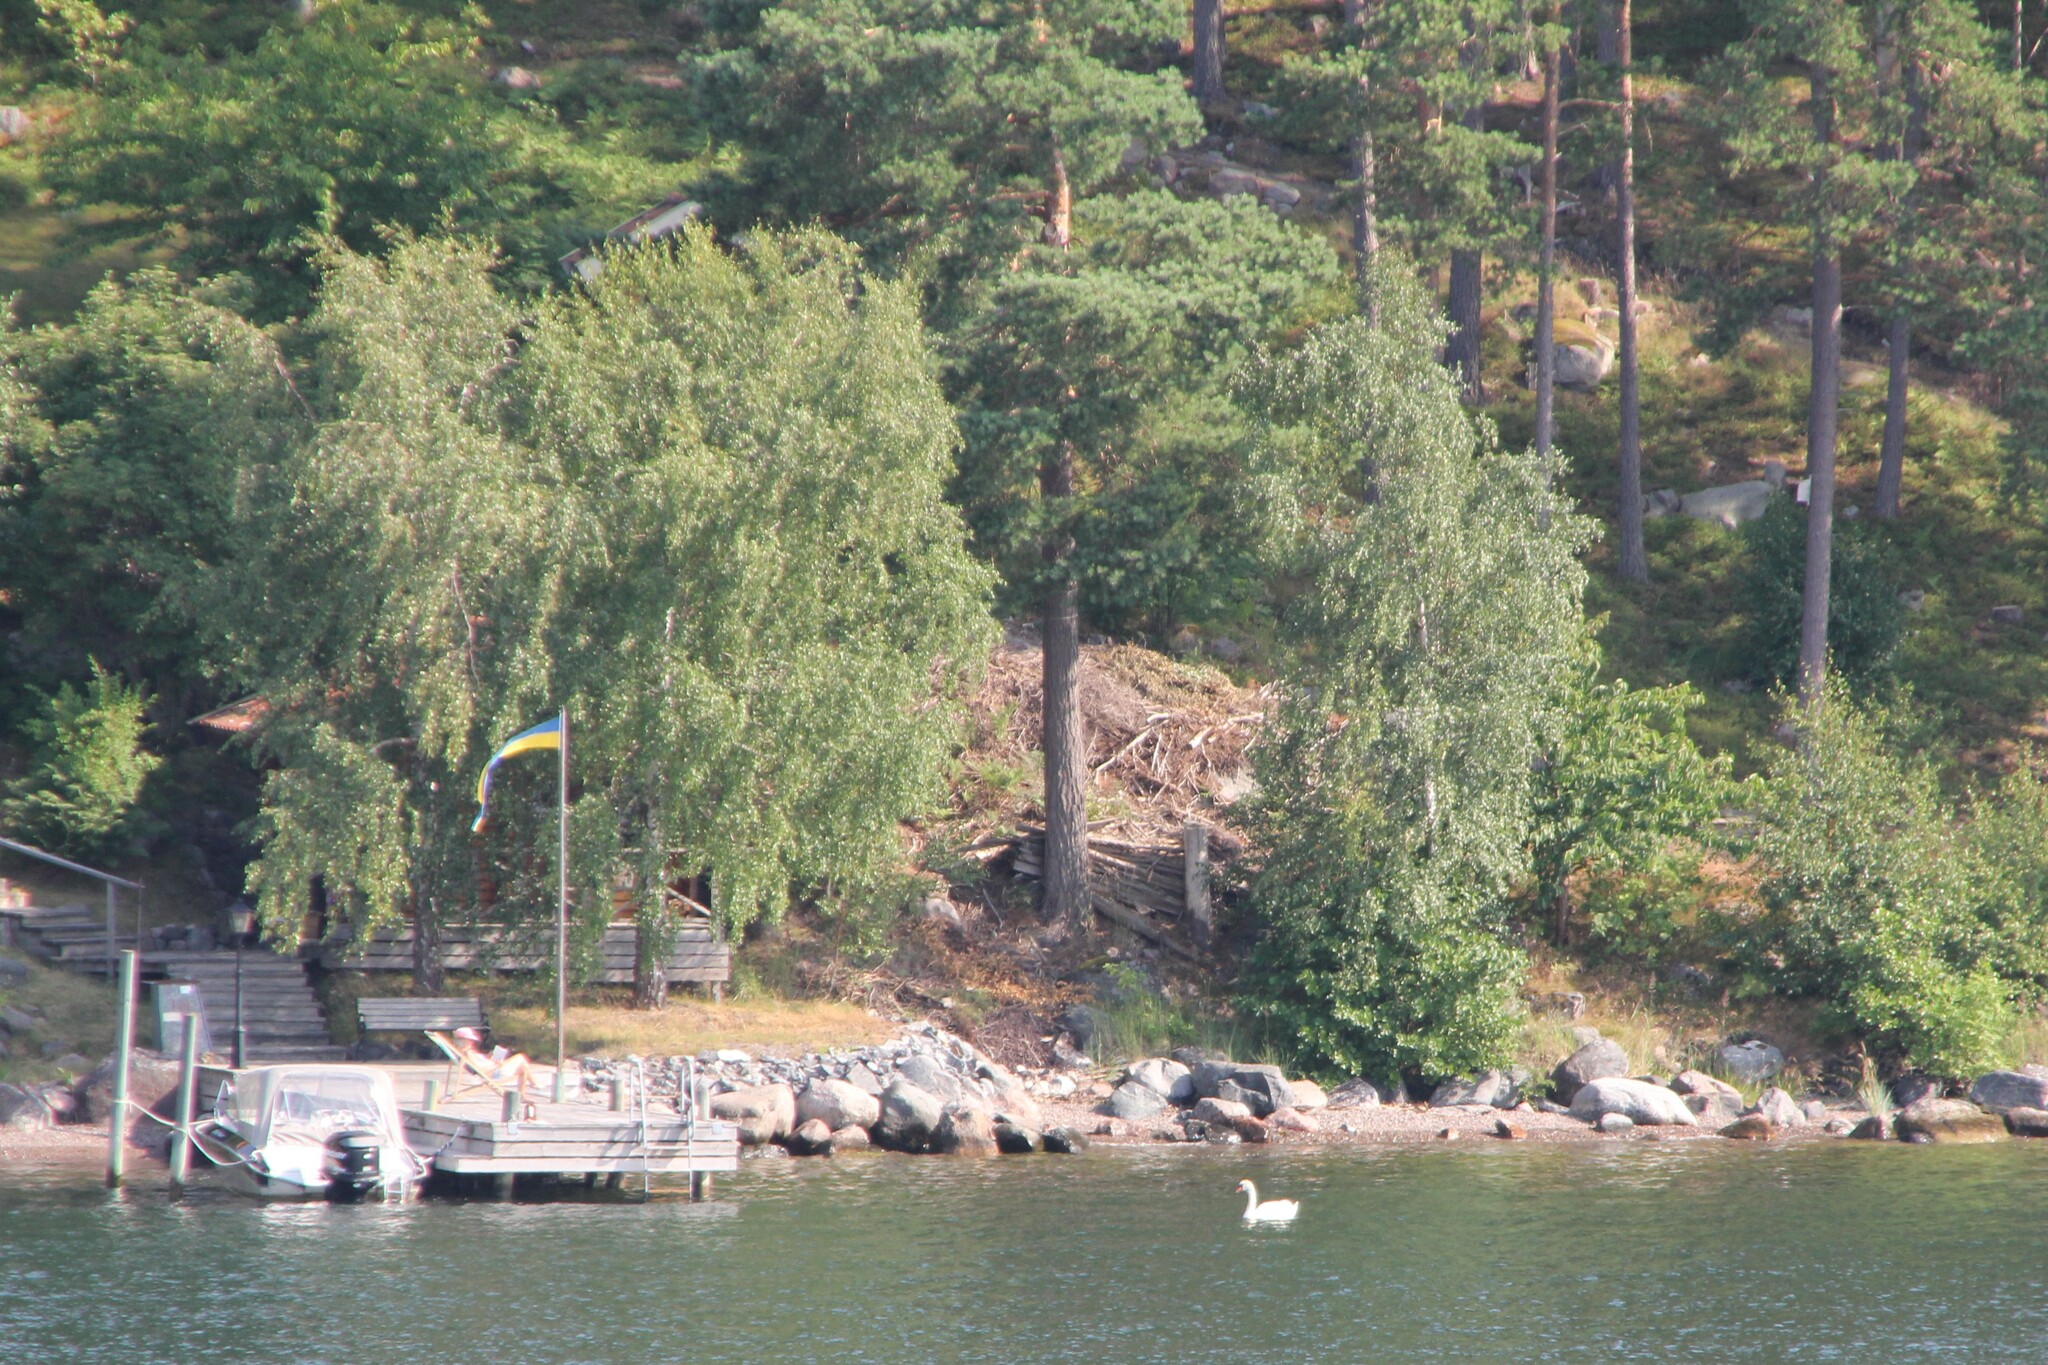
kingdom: Animalia
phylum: Chordata
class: Aves
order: Anseriformes
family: Anatidae
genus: Cygnus
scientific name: Cygnus olor
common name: Mute swan
